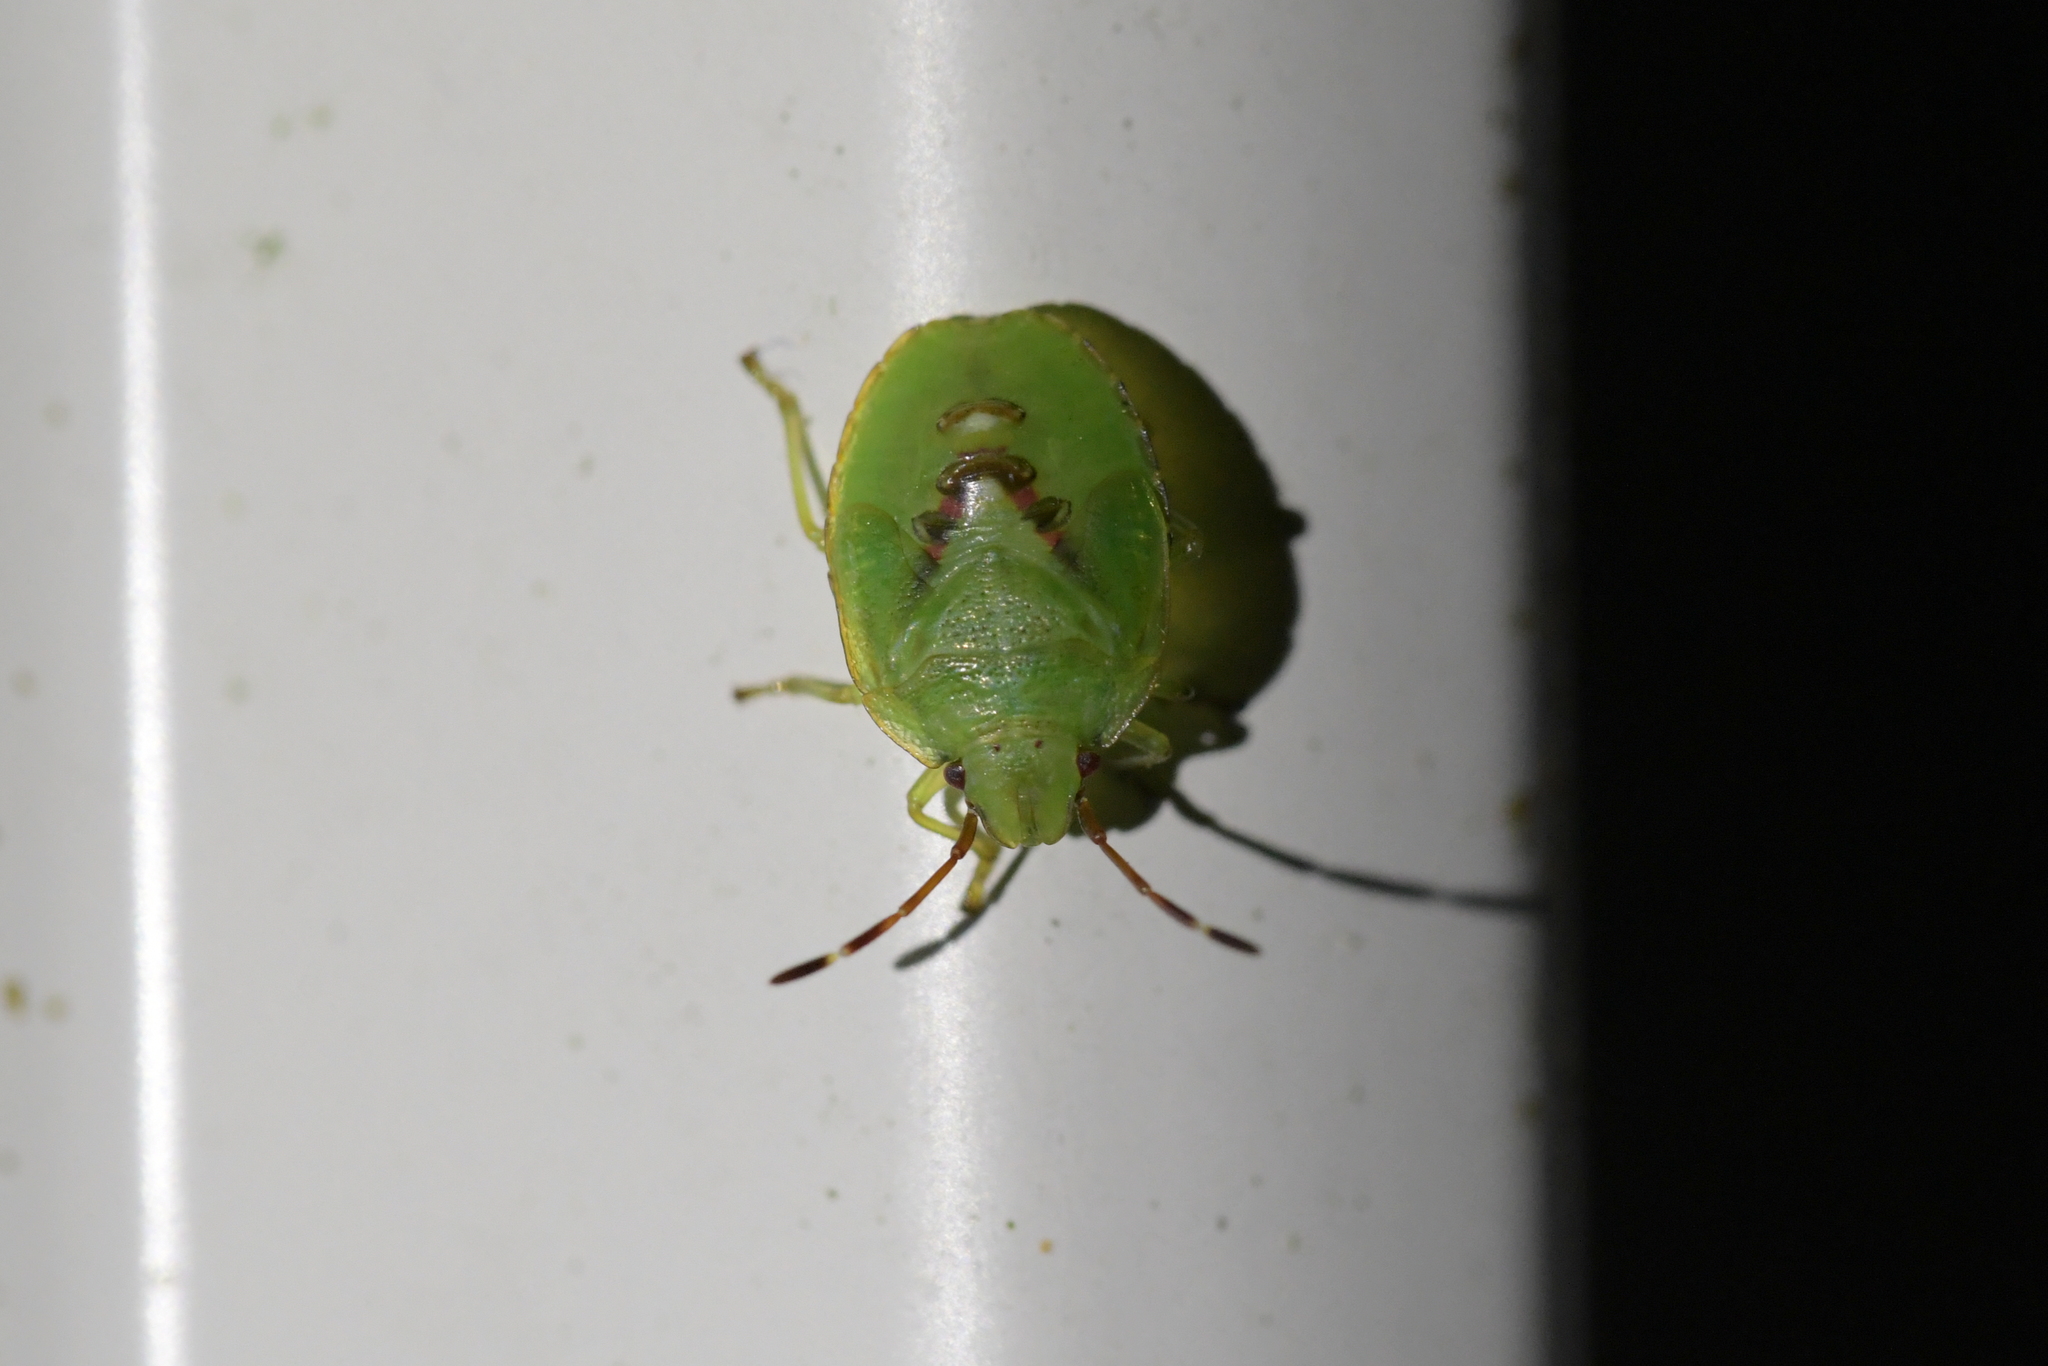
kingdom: Animalia
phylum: Arthropoda
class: Insecta
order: Hemiptera
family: Acanthosomatidae
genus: Oncacontias
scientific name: Oncacontias vittatus
